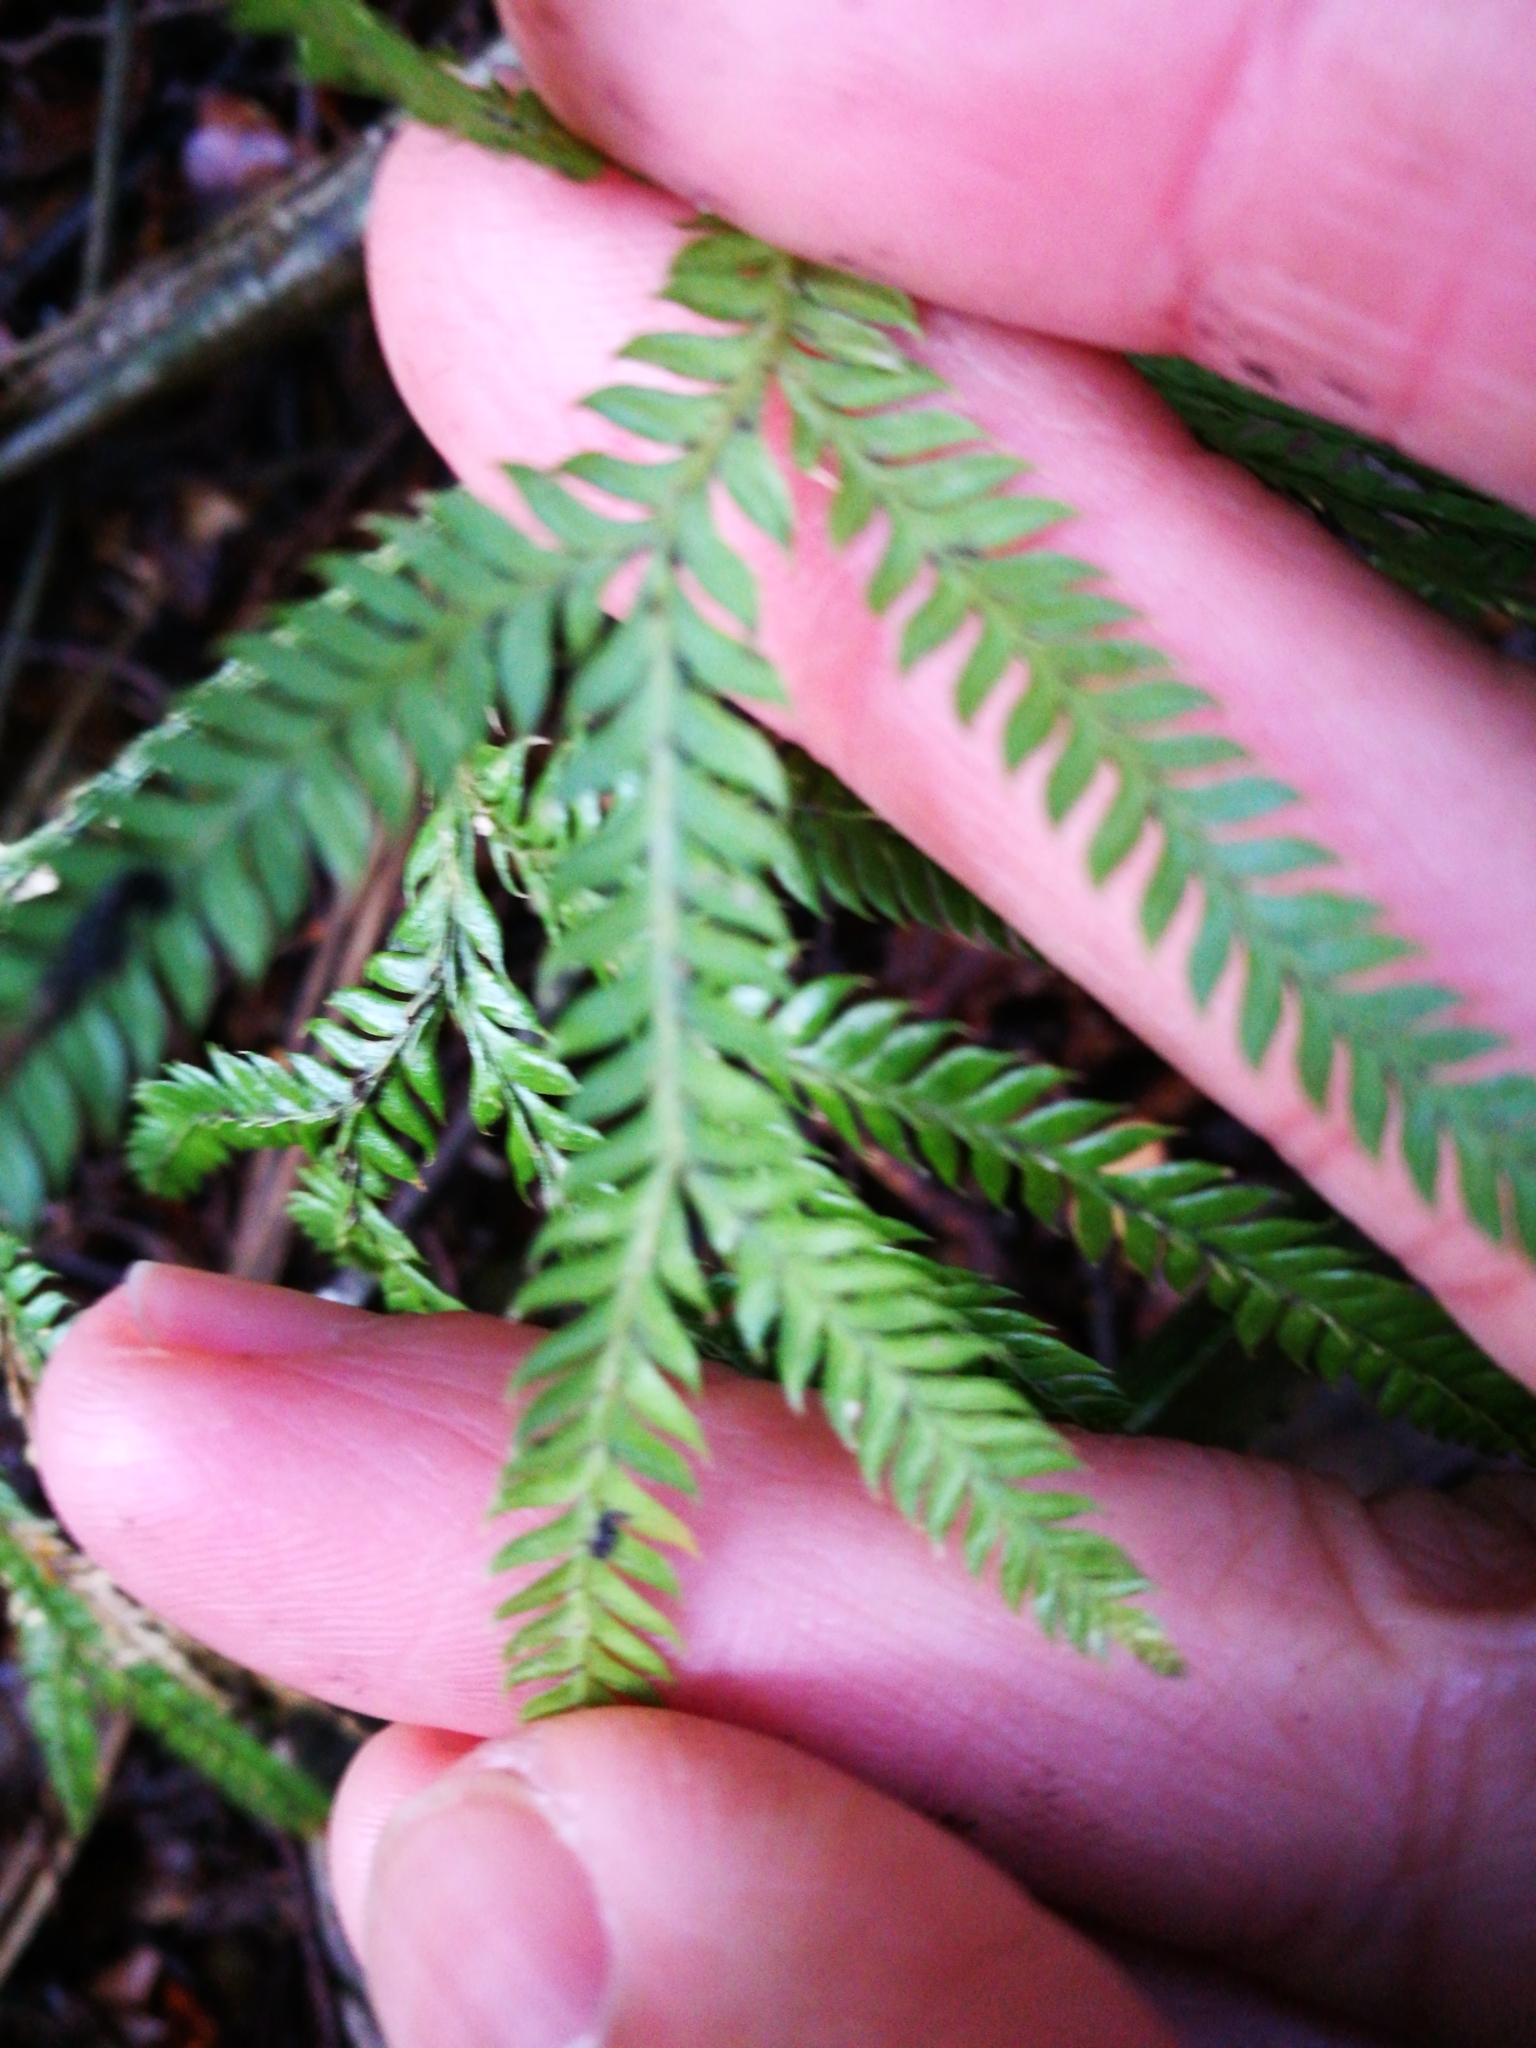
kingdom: Plantae
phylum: Tracheophyta
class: Lycopodiopsida
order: Lycopodiales
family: Lycopodiaceae
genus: Lycopodium
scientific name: Lycopodium volubile
